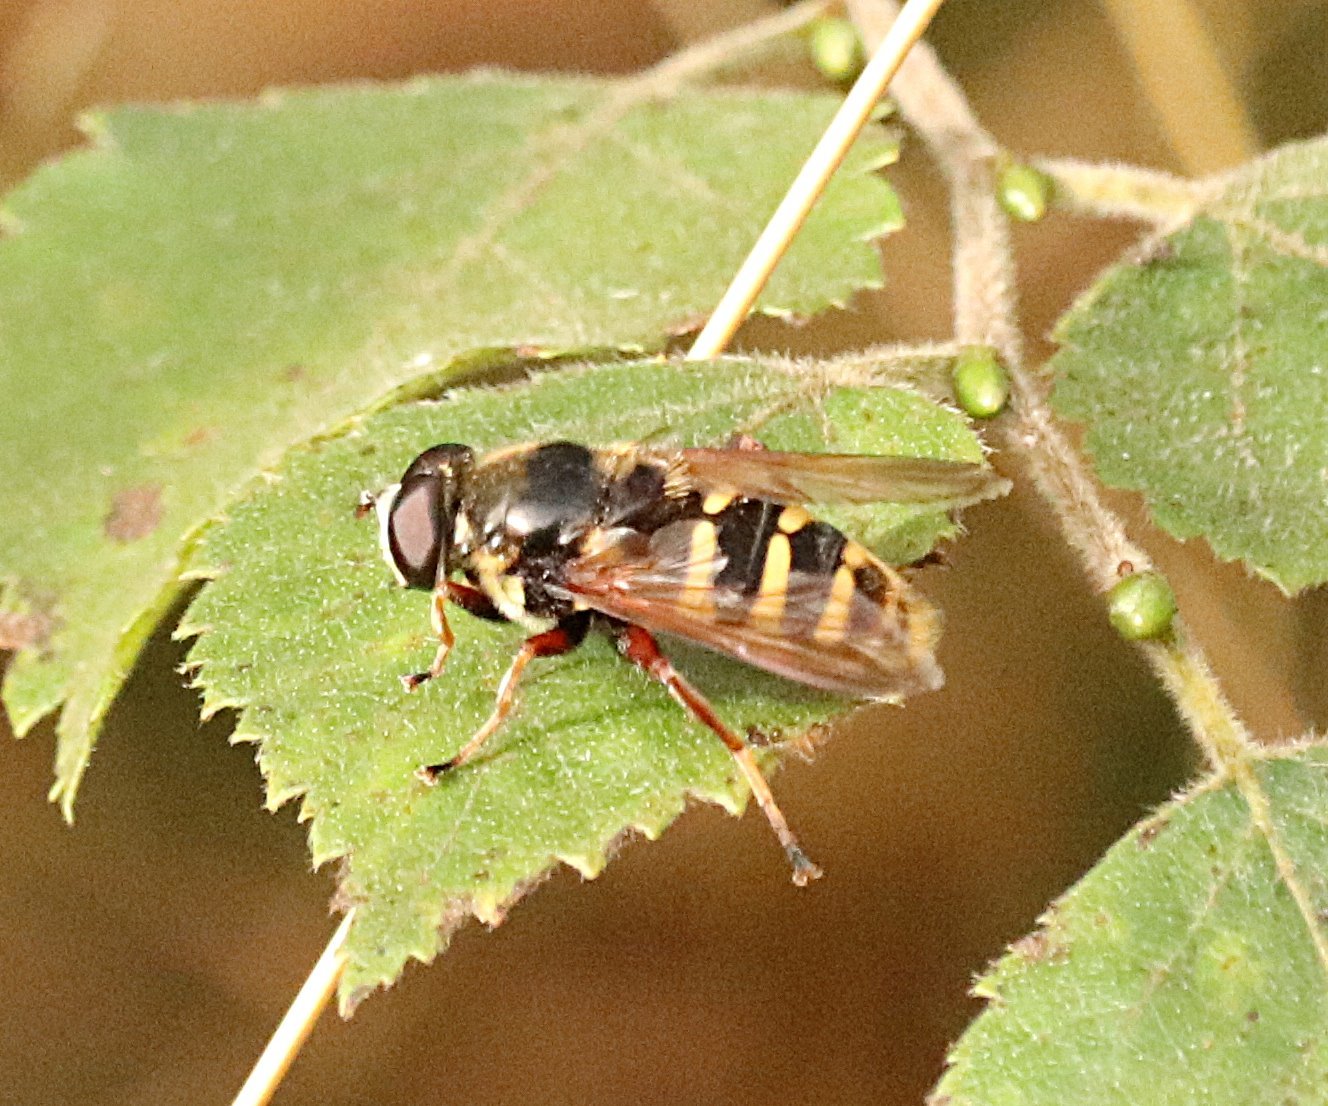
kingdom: Animalia
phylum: Arthropoda
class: Insecta
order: Diptera
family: Syrphidae
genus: Sericomyia
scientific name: Sericomyia silentis
